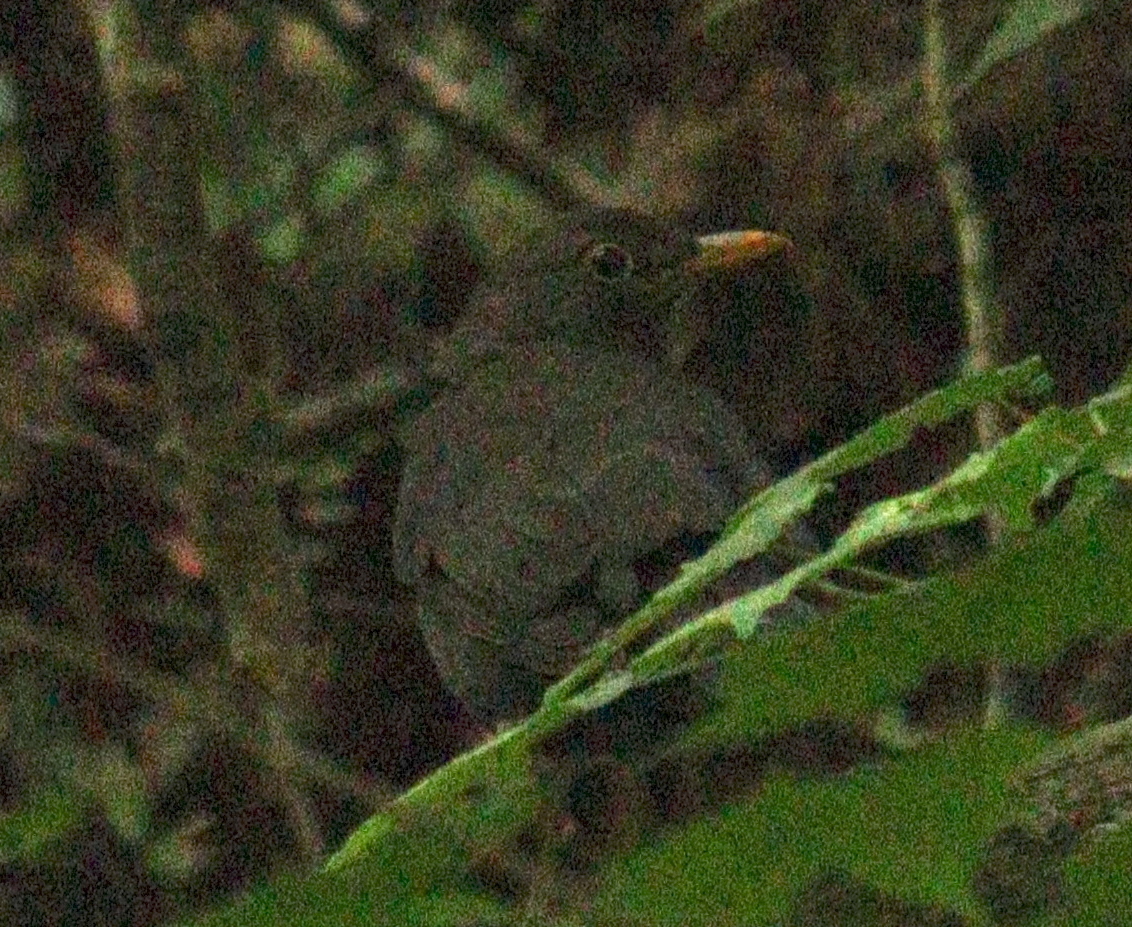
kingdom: Animalia
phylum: Chordata
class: Aves
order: Passeriformes
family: Turdidae
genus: Turdus
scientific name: Turdus merula
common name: Common blackbird
